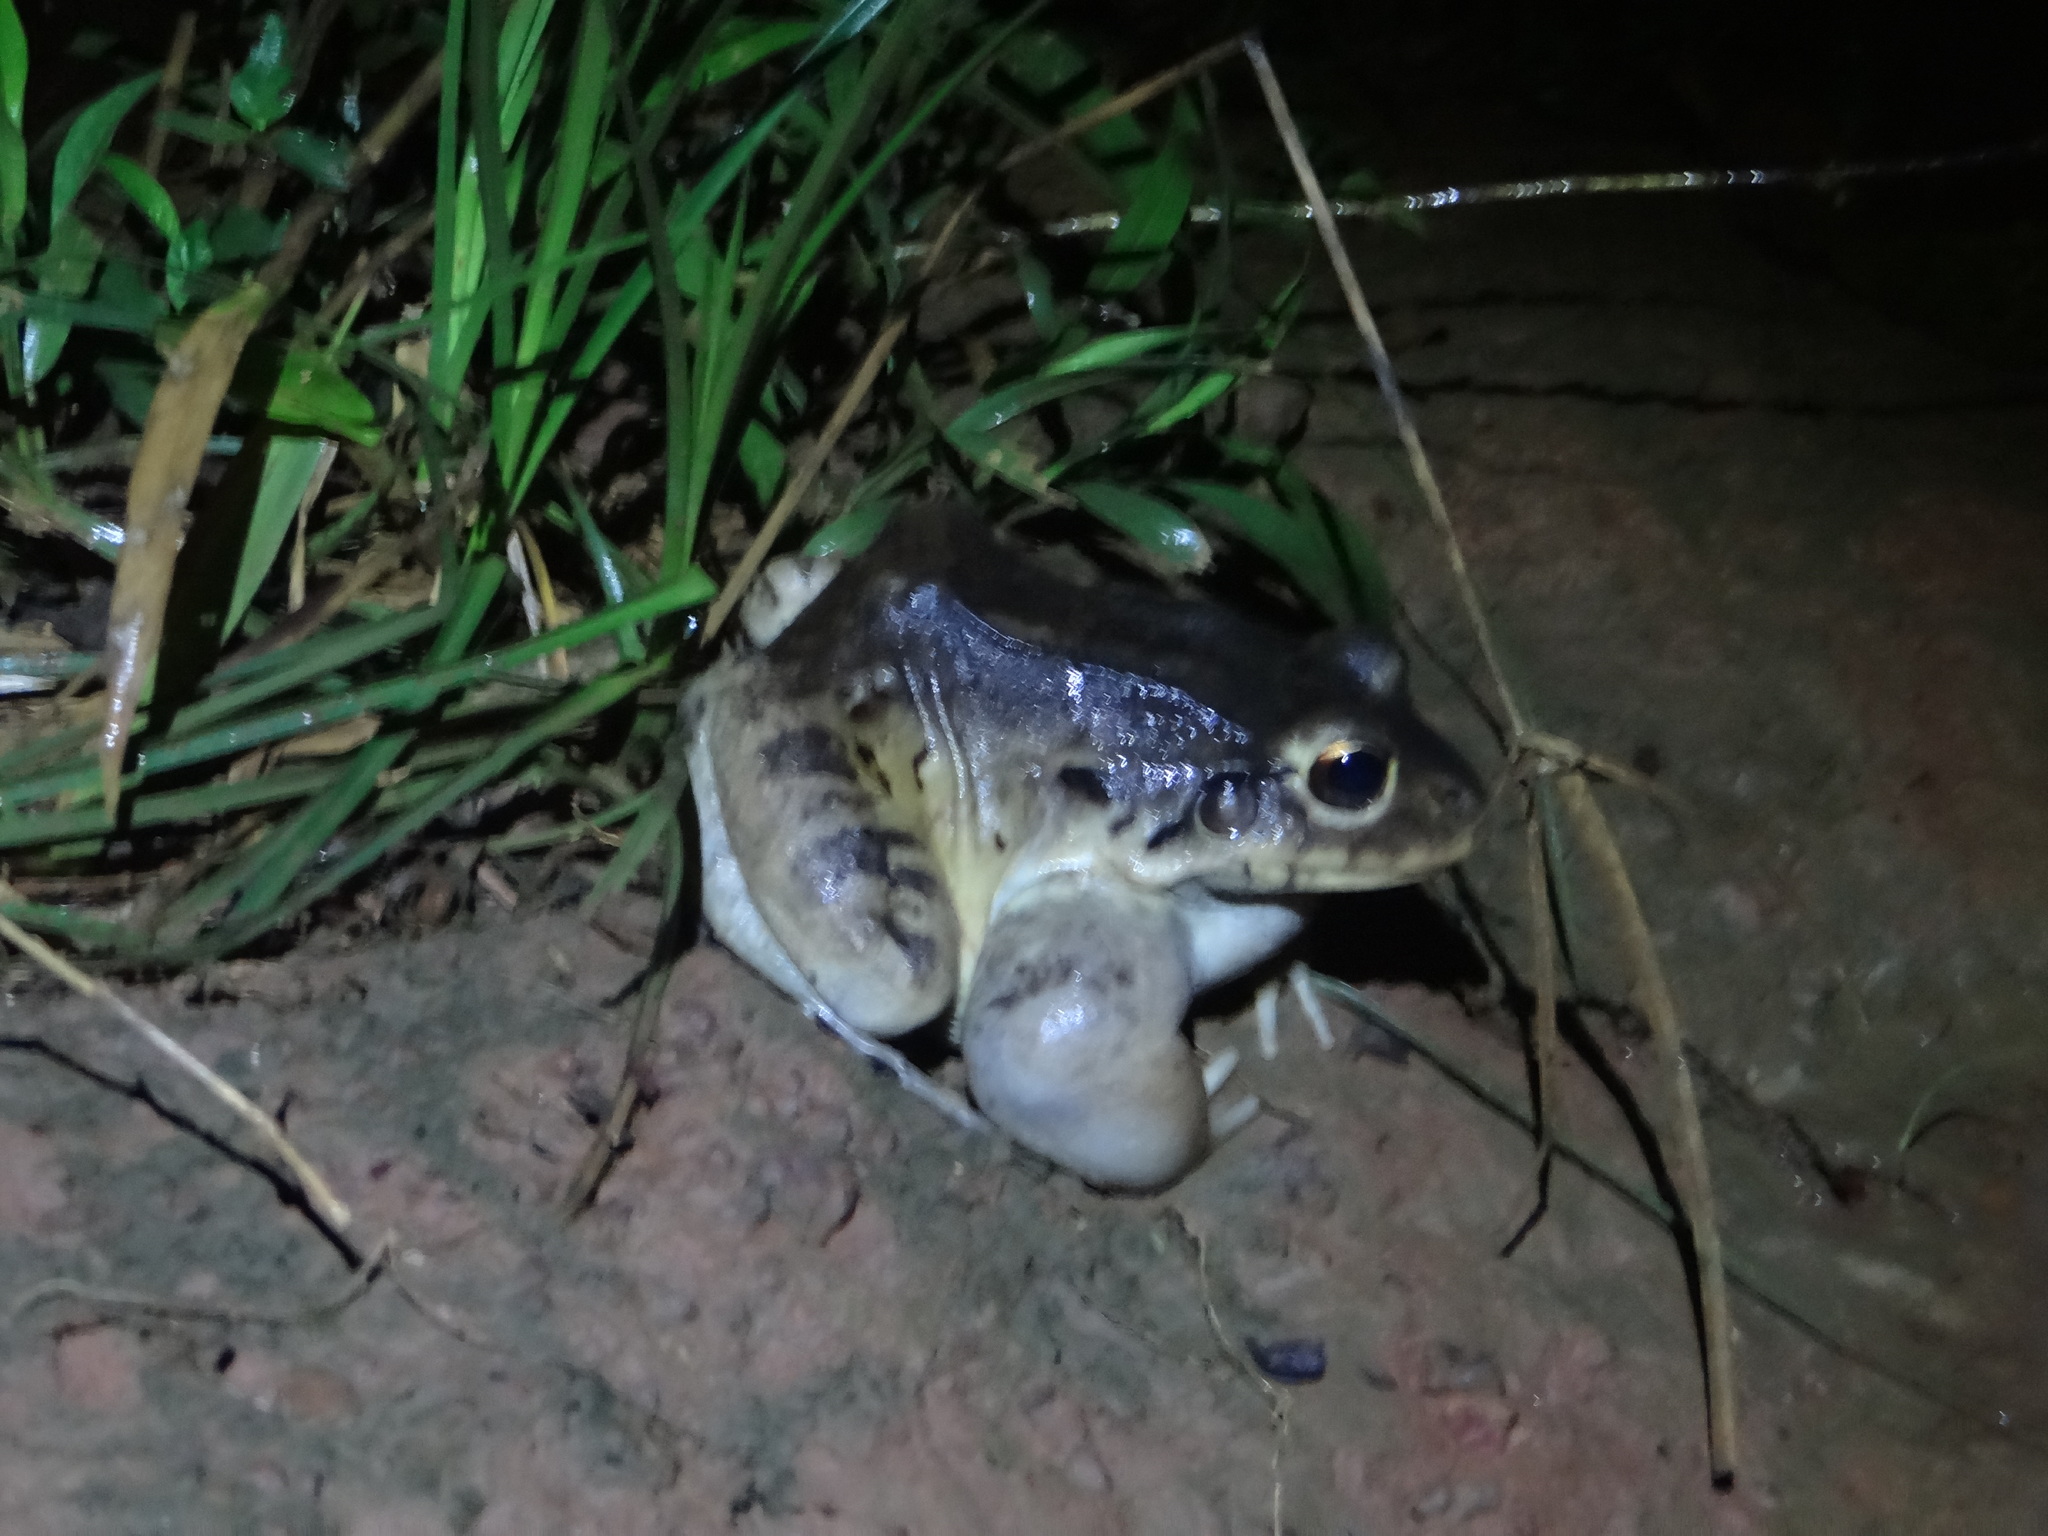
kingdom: Animalia
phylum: Chordata
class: Amphibia
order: Anura
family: Leptodactylidae
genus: Leptodactylus
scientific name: Leptodactylus knudseni
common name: Knudsen's frog
